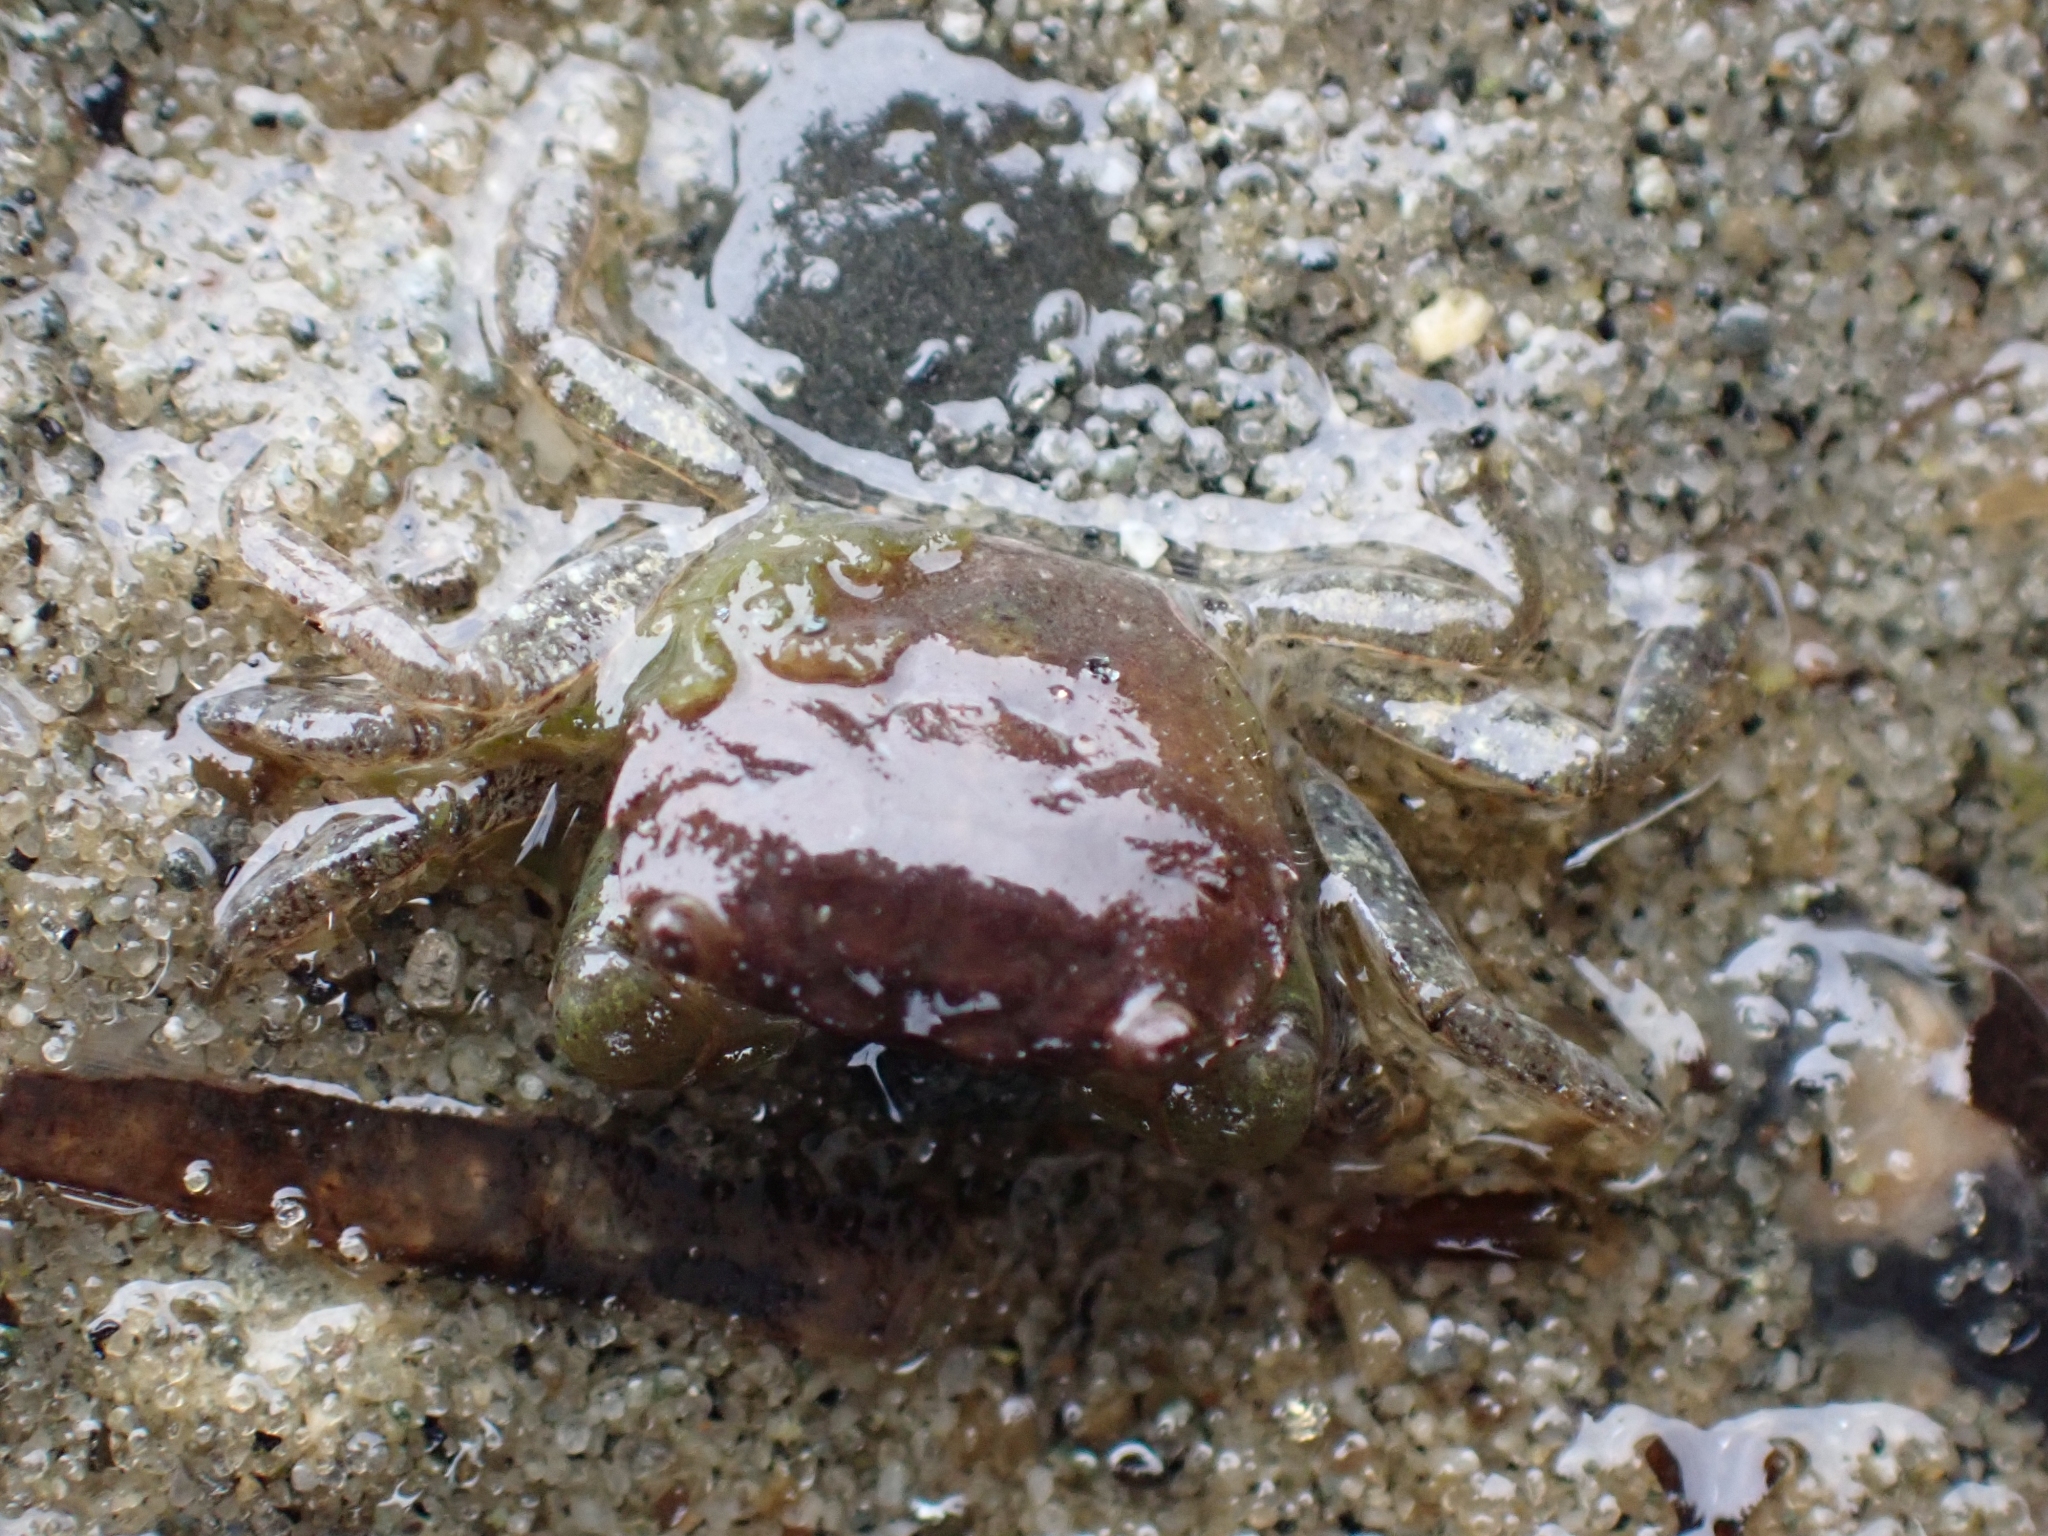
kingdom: Animalia
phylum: Arthropoda
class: Malacostraca
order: Decapoda
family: Varunidae
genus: Hemigrapsus
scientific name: Hemigrapsus oregonensis
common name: Yellow shore crab
